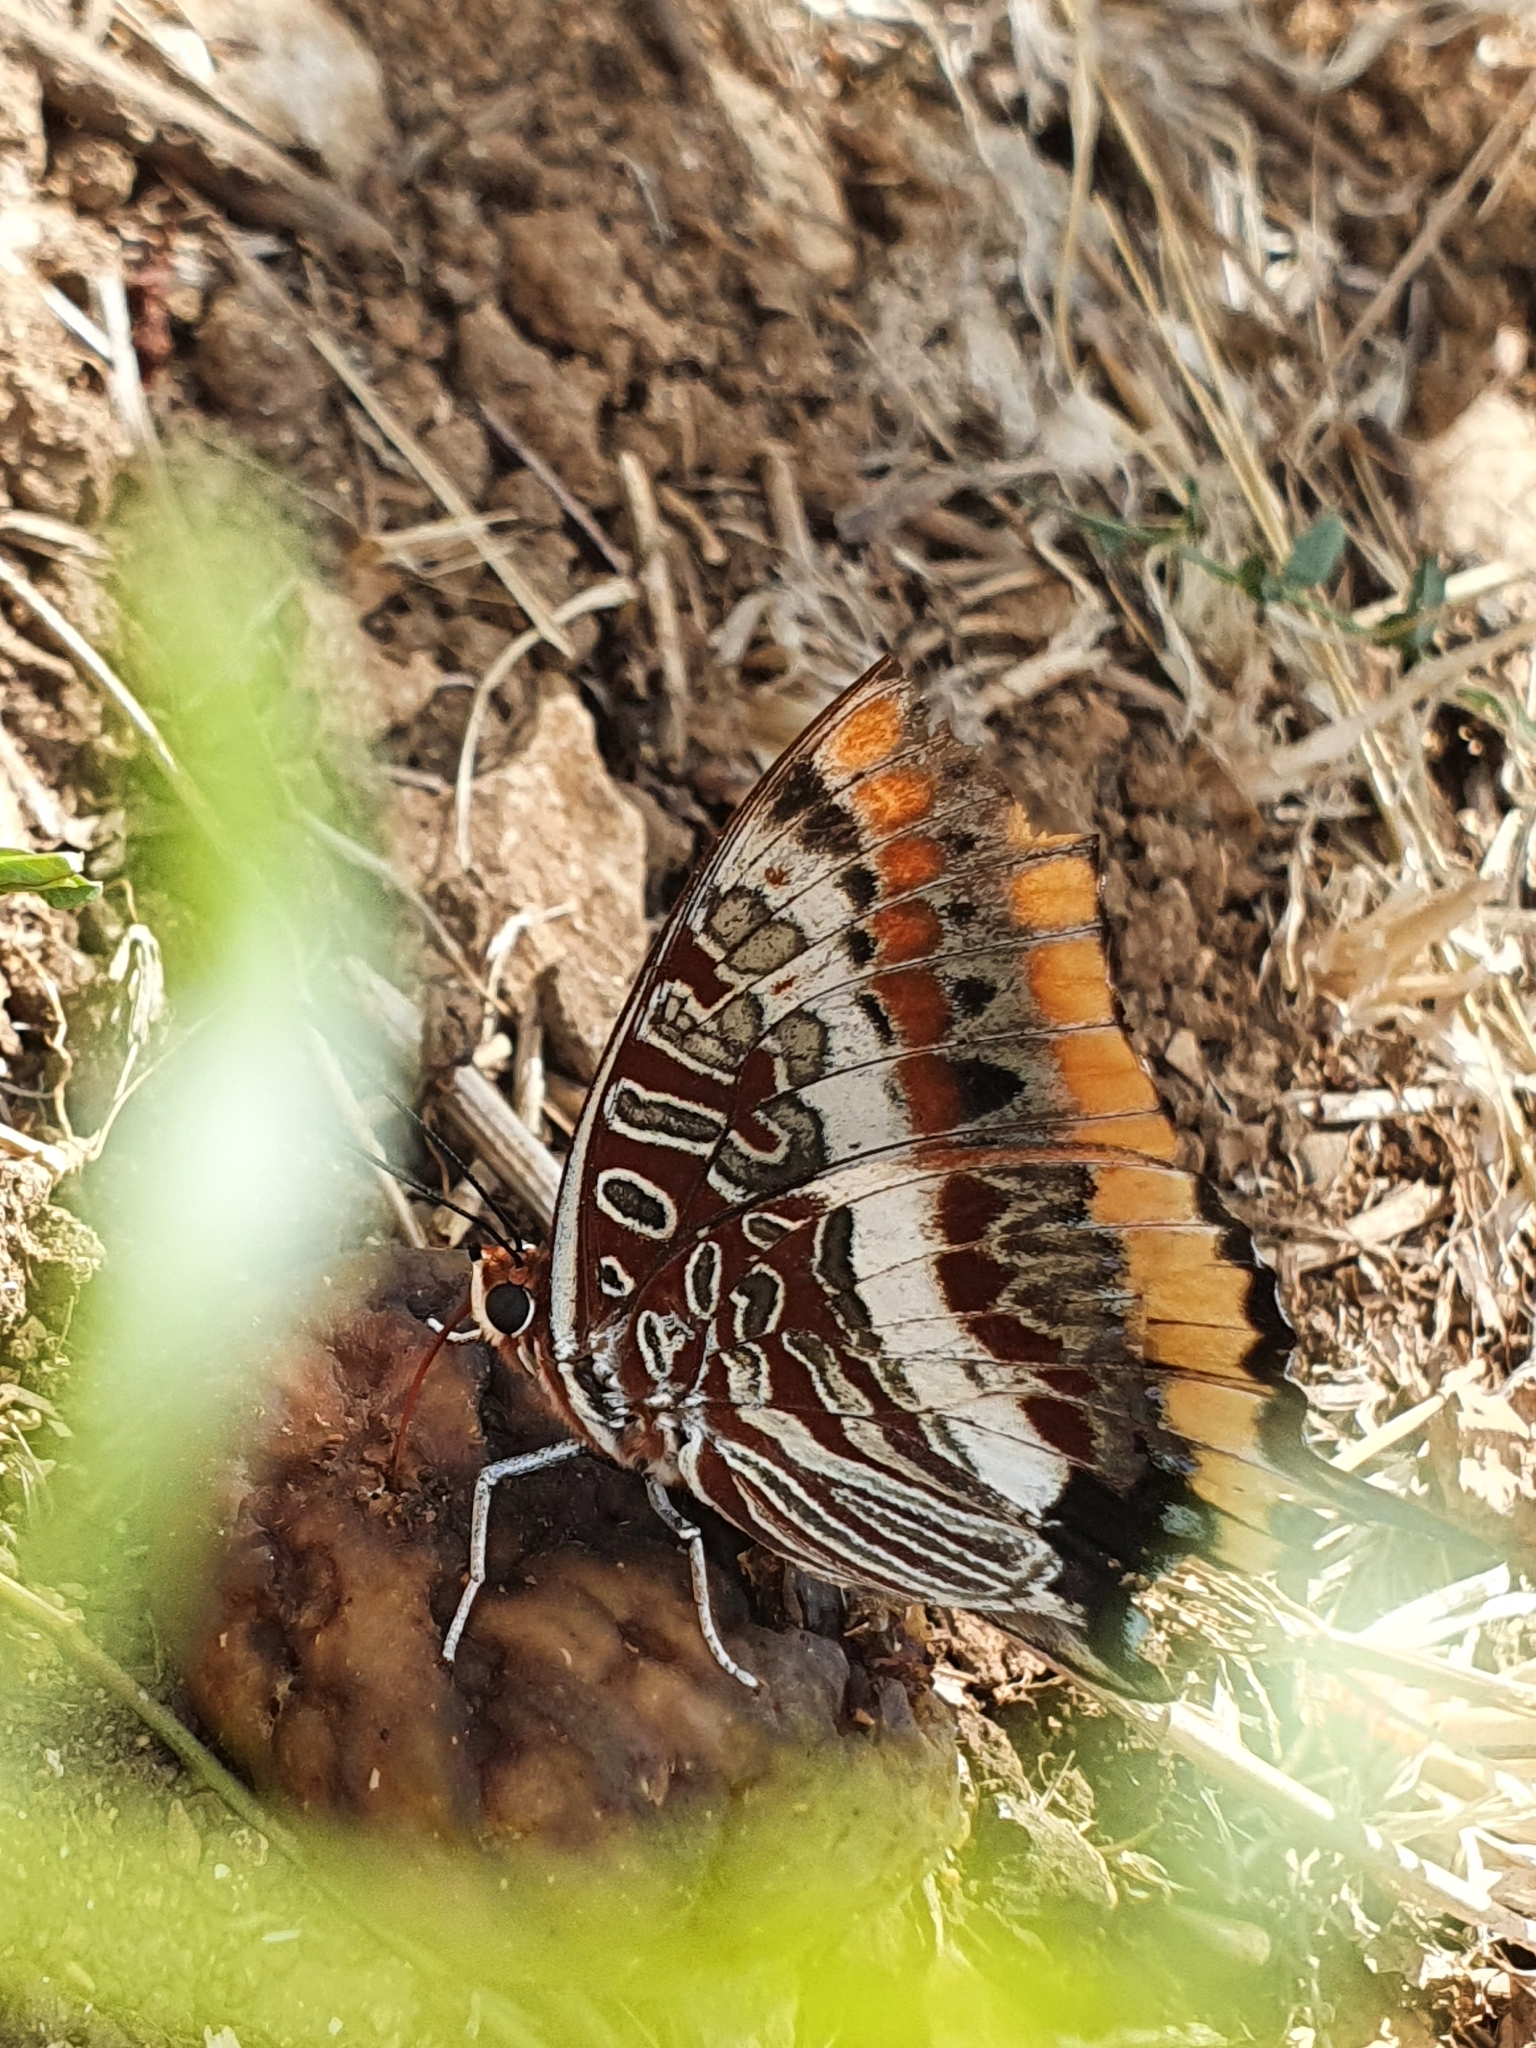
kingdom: Animalia
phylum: Arthropoda
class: Insecta
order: Lepidoptera
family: Nymphalidae
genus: Charaxes
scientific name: Charaxes jasius
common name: Two tailed pasha
